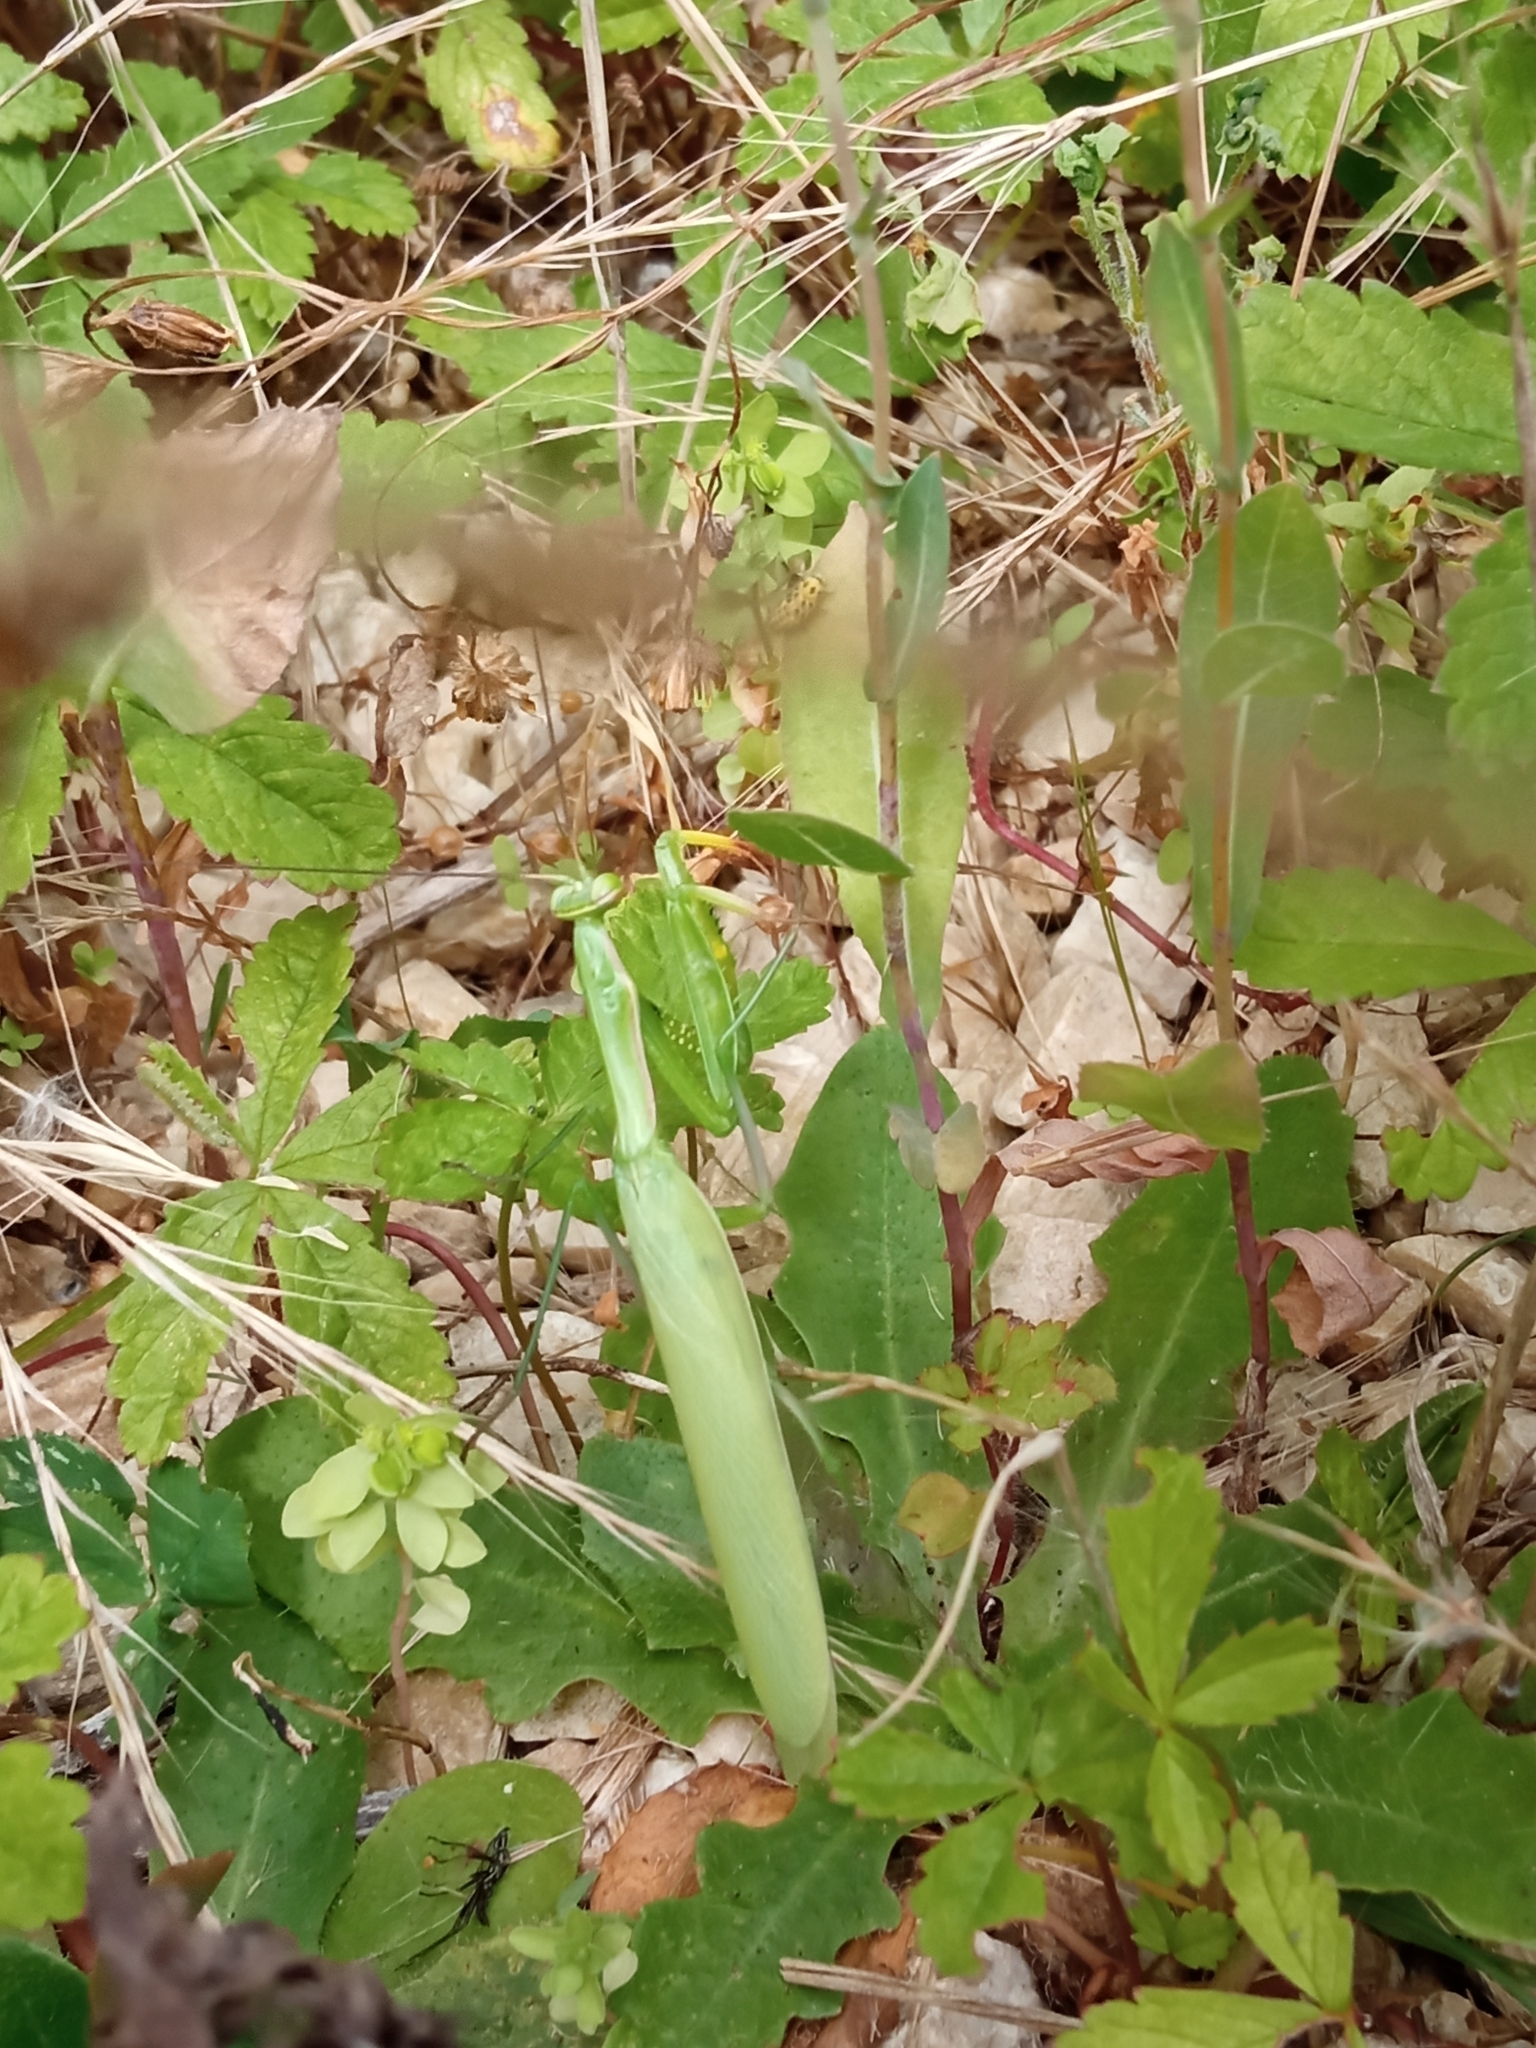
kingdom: Animalia
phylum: Arthropoda
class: Insecta
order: Mantodea
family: Mantidae
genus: Mantis
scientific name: Mantis religiosa
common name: Praying mantis
